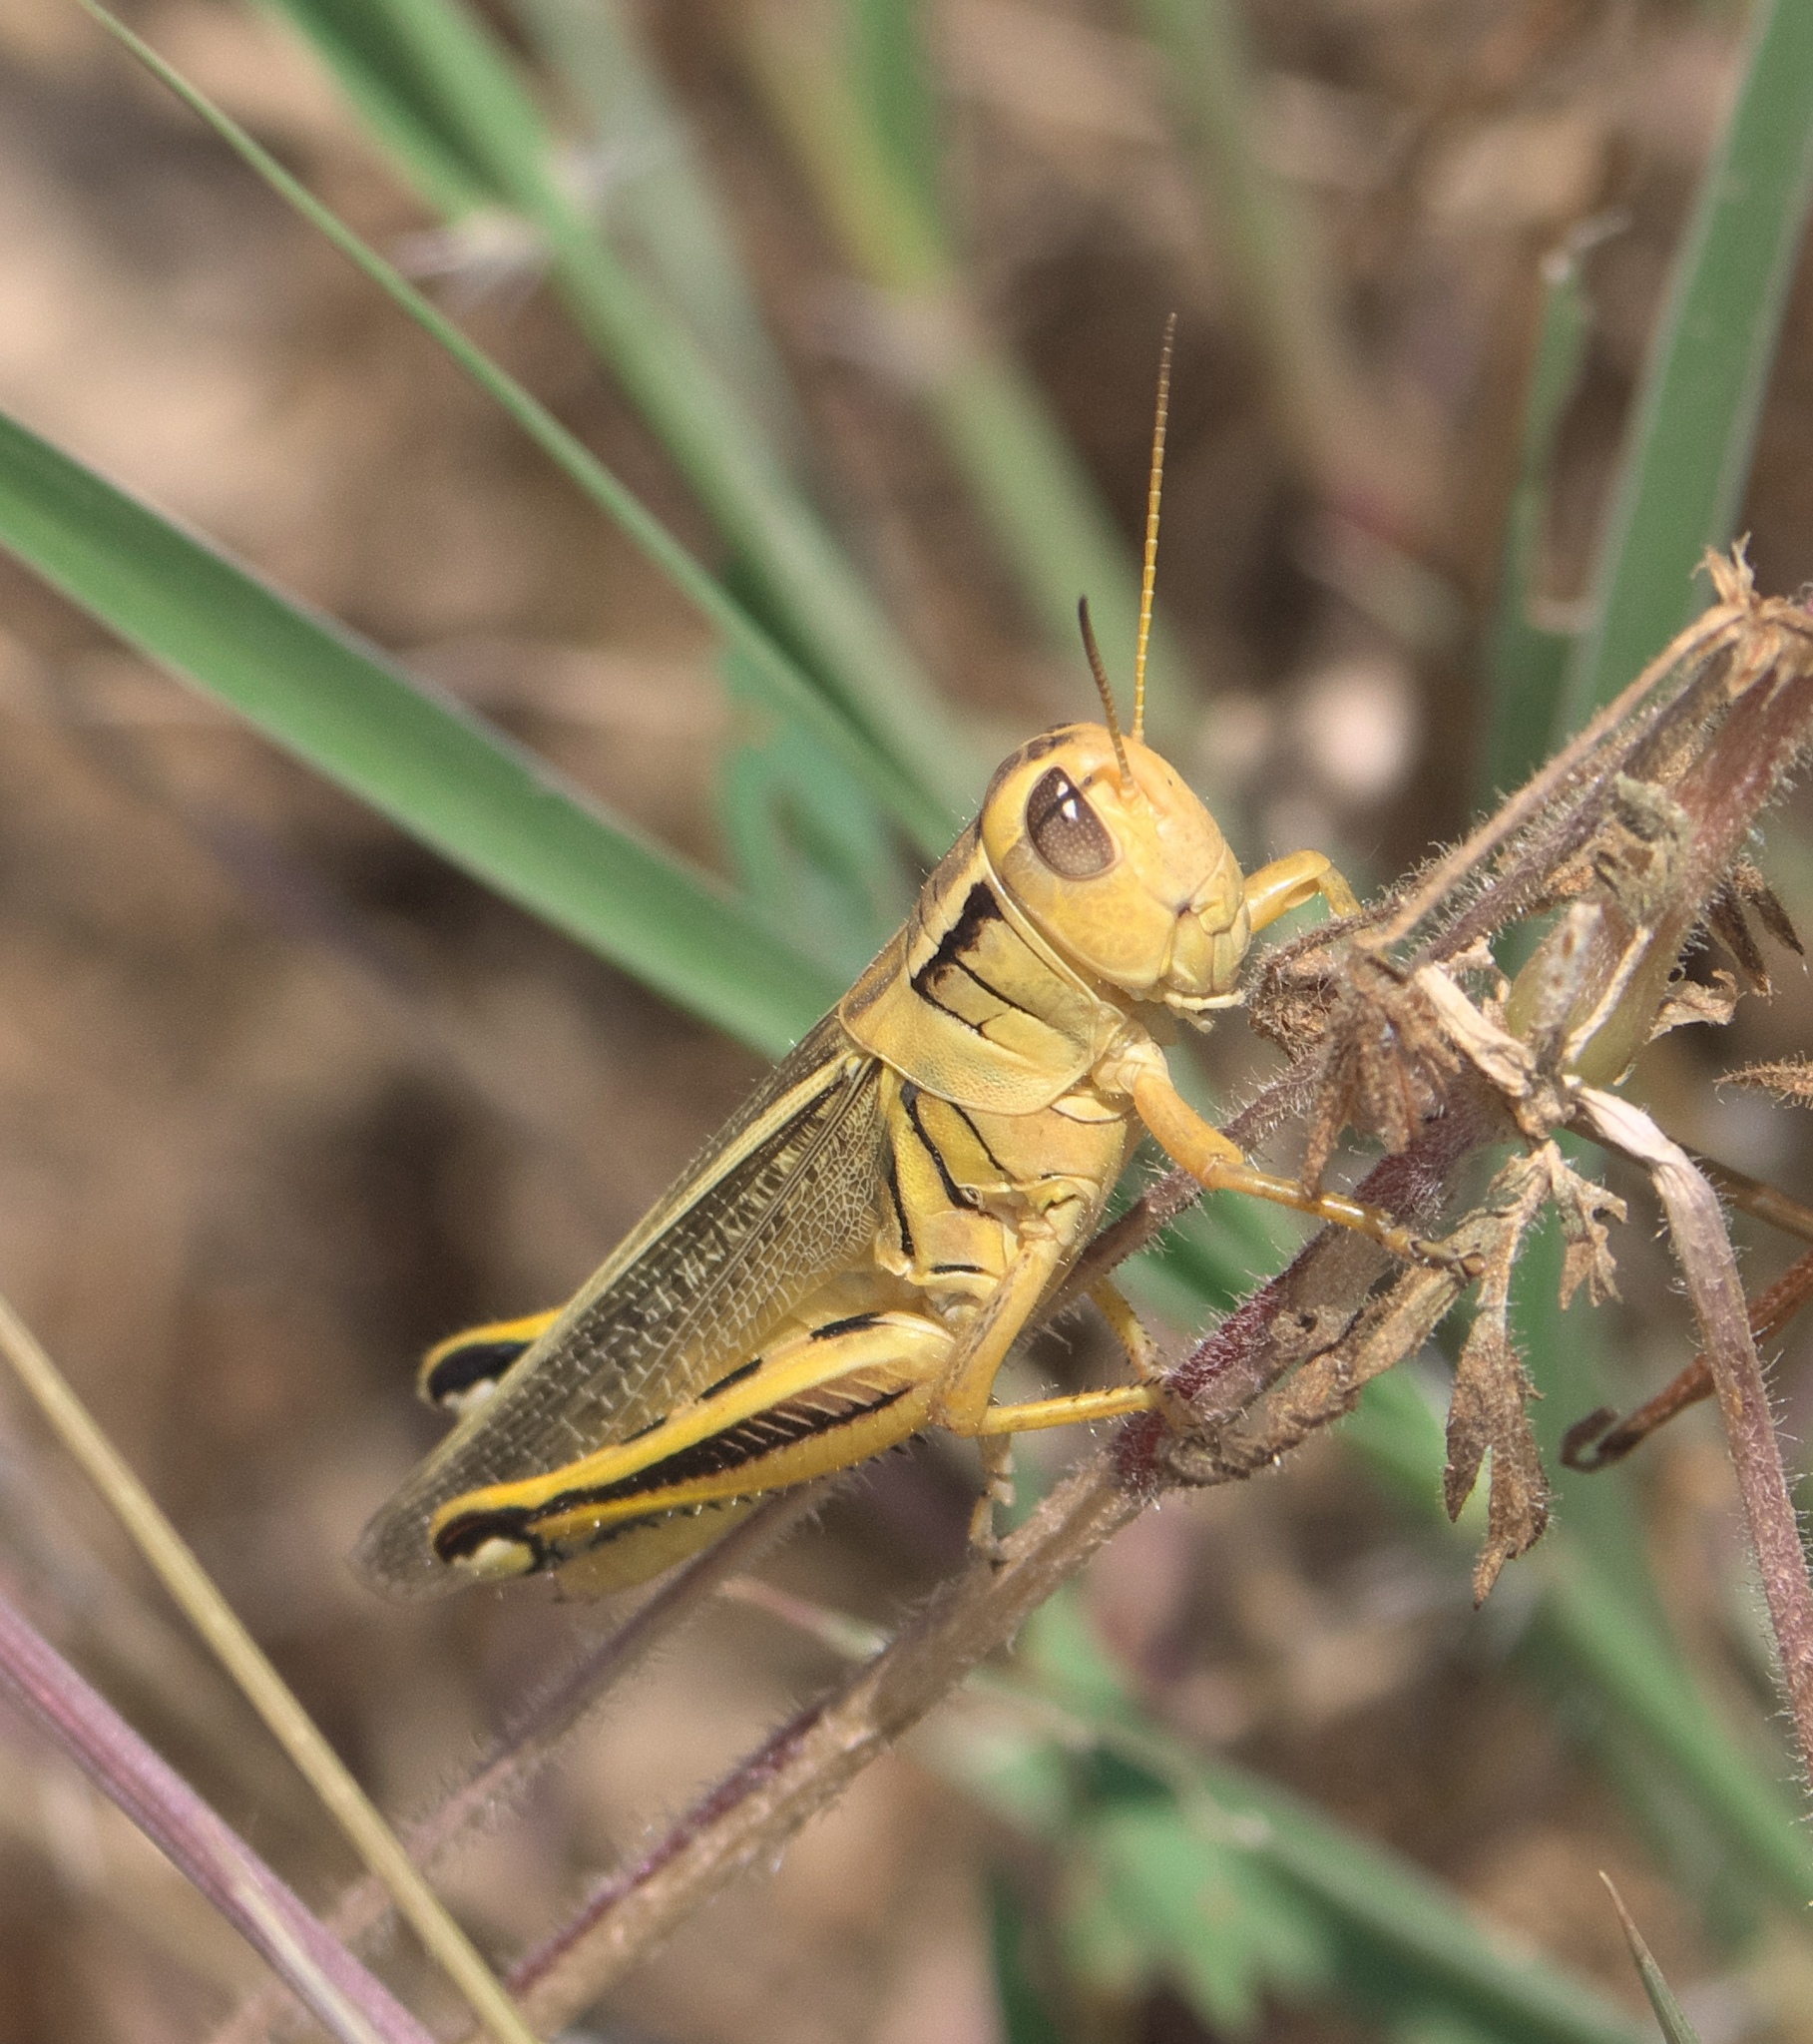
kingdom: Animalia
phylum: Arthropoda
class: Insecta
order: Orthoptera
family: Acrididae
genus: Melanoplus
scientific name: Melanoplus bivittatus
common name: Two-striped grasshopper
